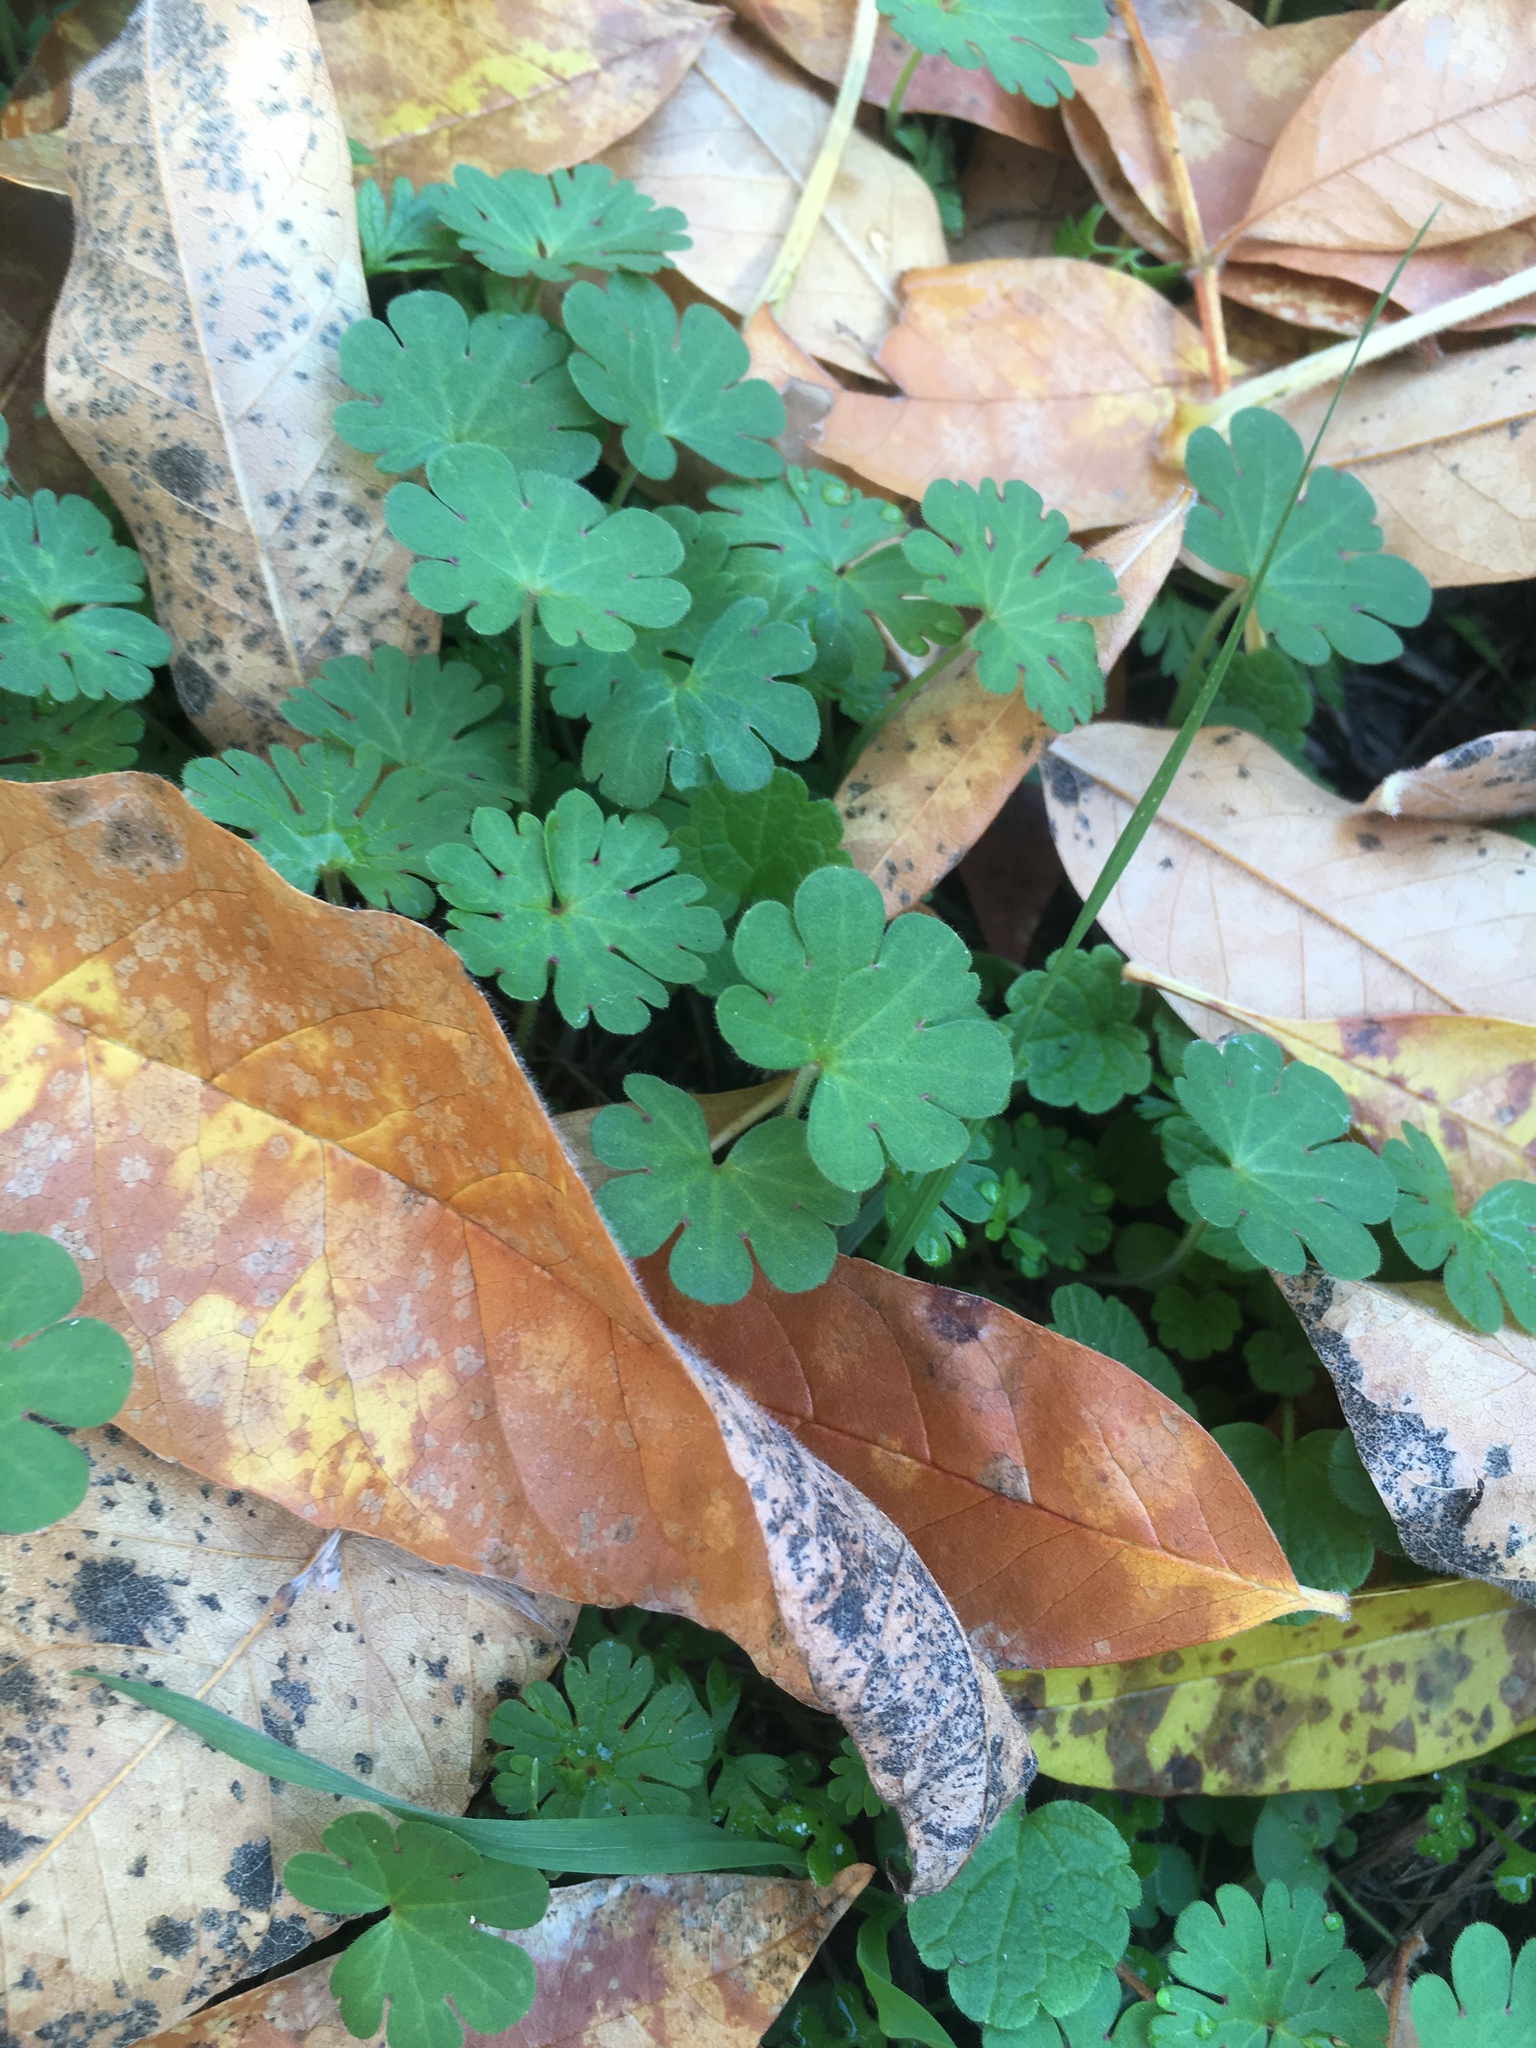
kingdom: Plantae
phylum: Tracheophyta
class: Magnoliopsida
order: Geraniales
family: Geraniaceae
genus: Geranium
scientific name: Geranium molle
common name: Dove's-foot crane's-bill
